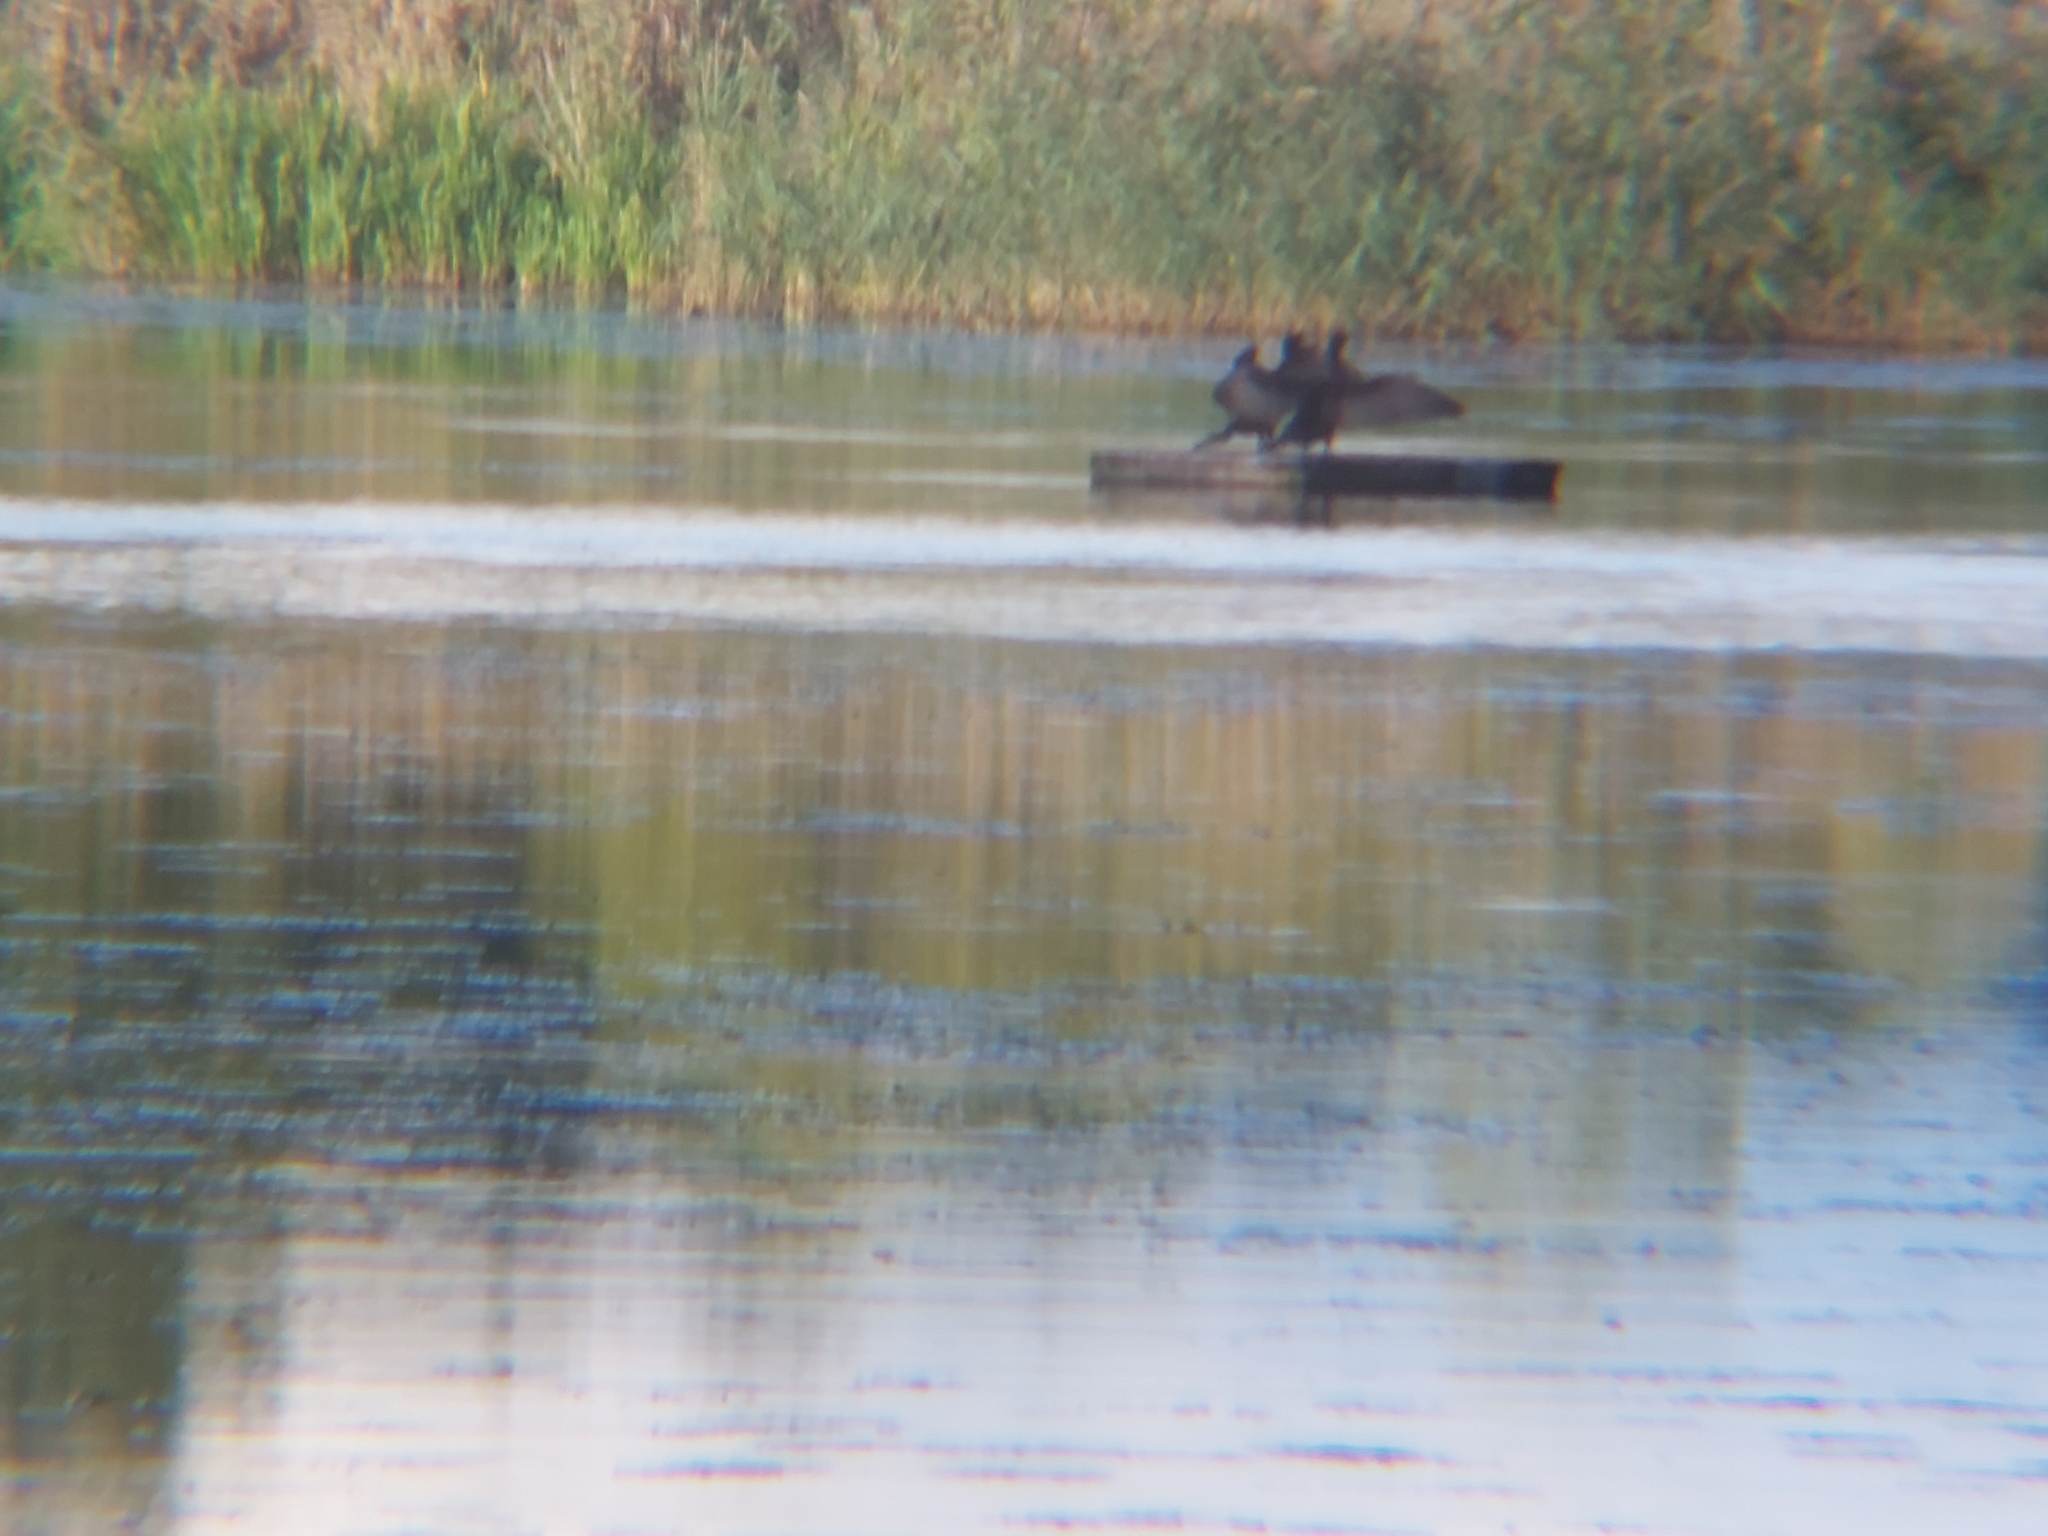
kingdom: Animalia
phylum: Chordata
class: Aves
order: Suliformes
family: Phalacrocoracidae
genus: Phalacrocorax
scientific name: Phalacrocorax carbo
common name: Great cormorant
